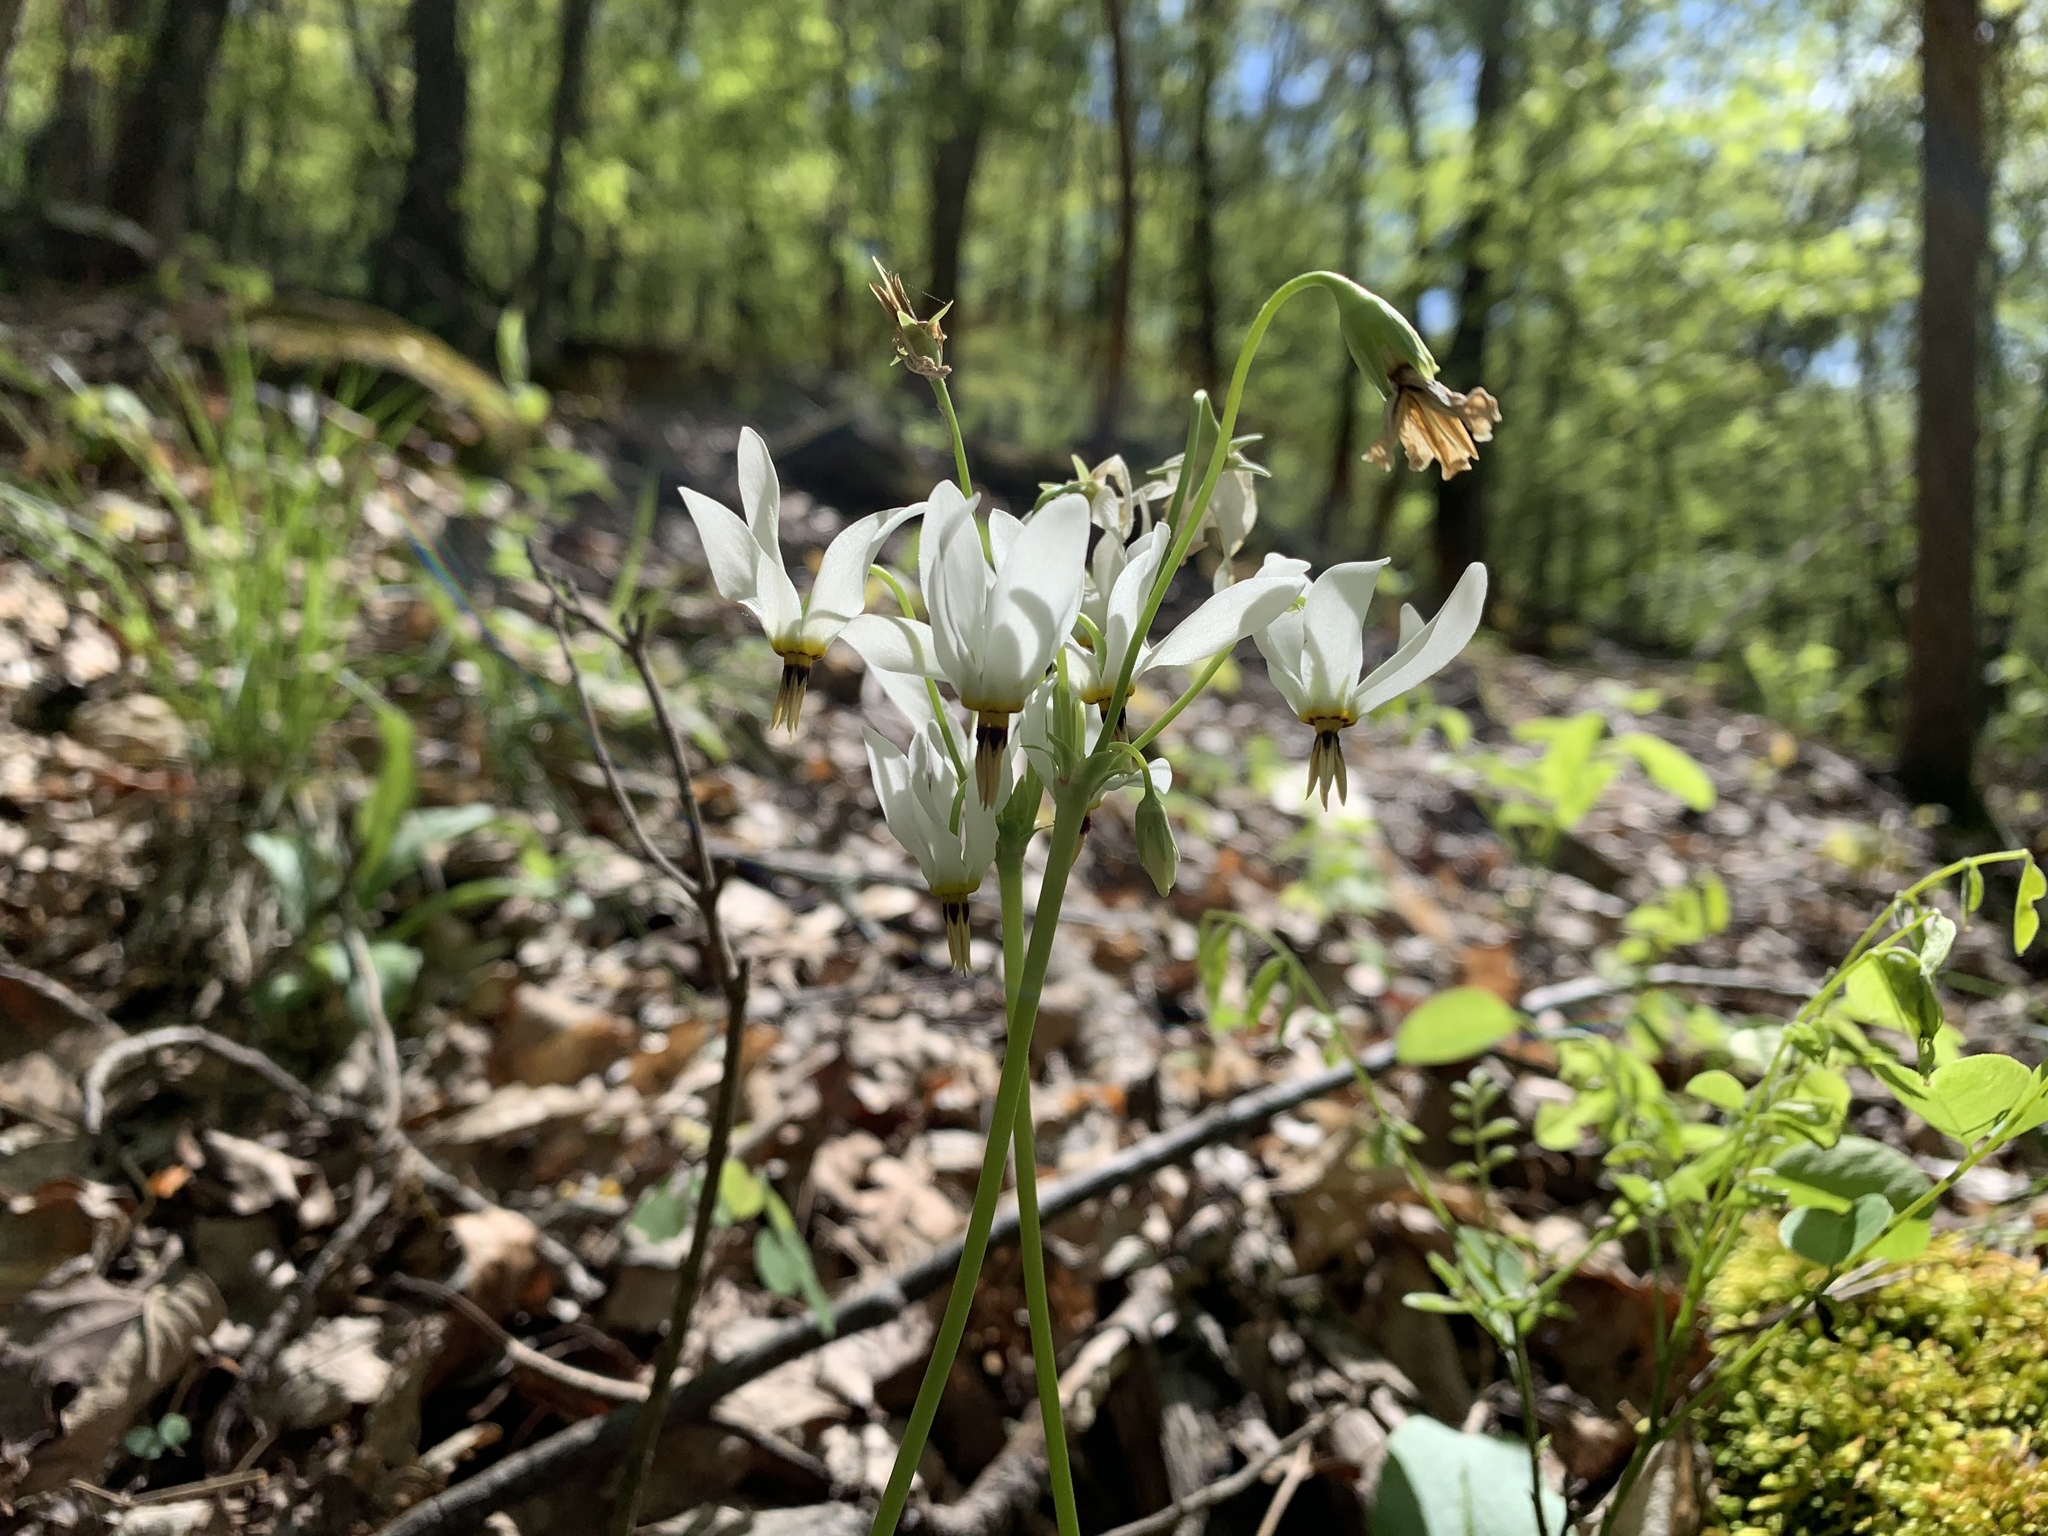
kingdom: Plantae
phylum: Tracheophyta
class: Magnoliopsida
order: Ericales
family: Primulaceae
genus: Dodecatheon
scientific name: Dodecatheon meadia
